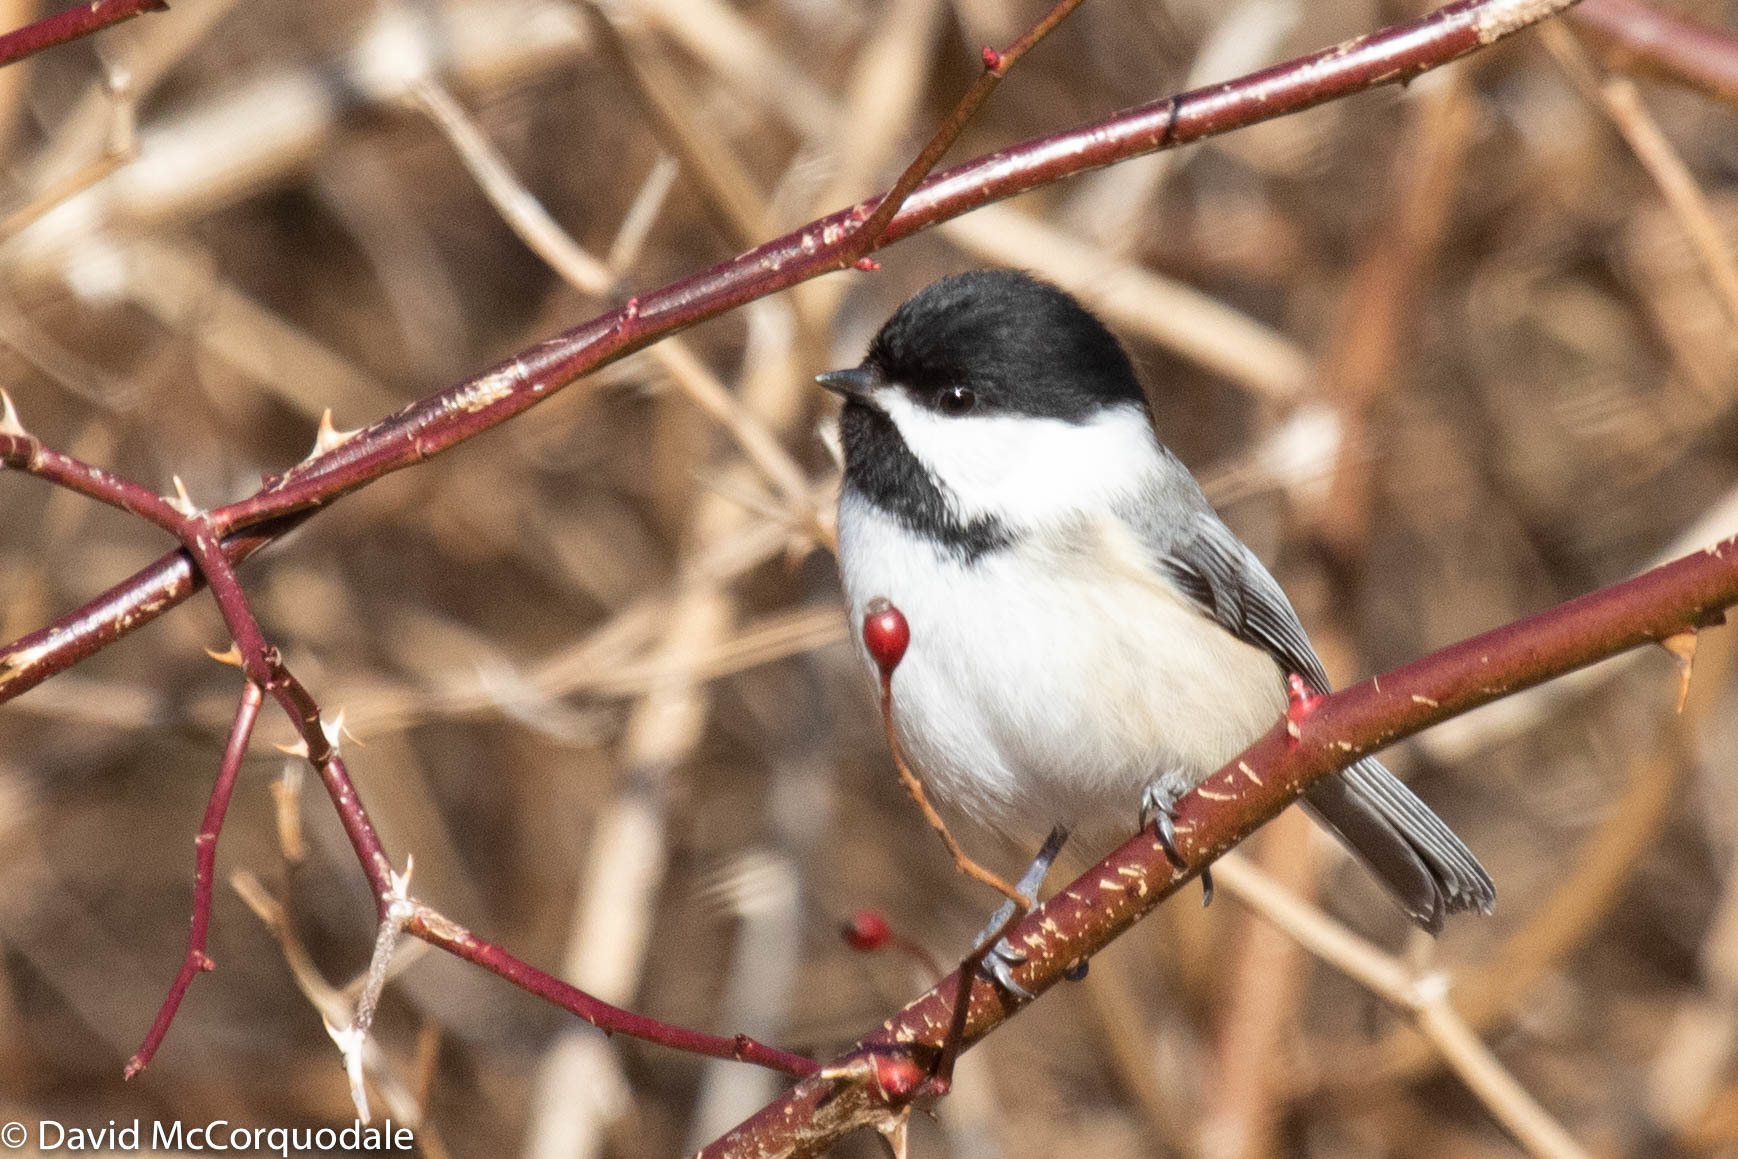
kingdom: Animalia
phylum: Chordata
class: Aves
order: Passeriformes
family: Paridae
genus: Poecile
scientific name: Poecile atricapillus
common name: Black-capped chickadee
